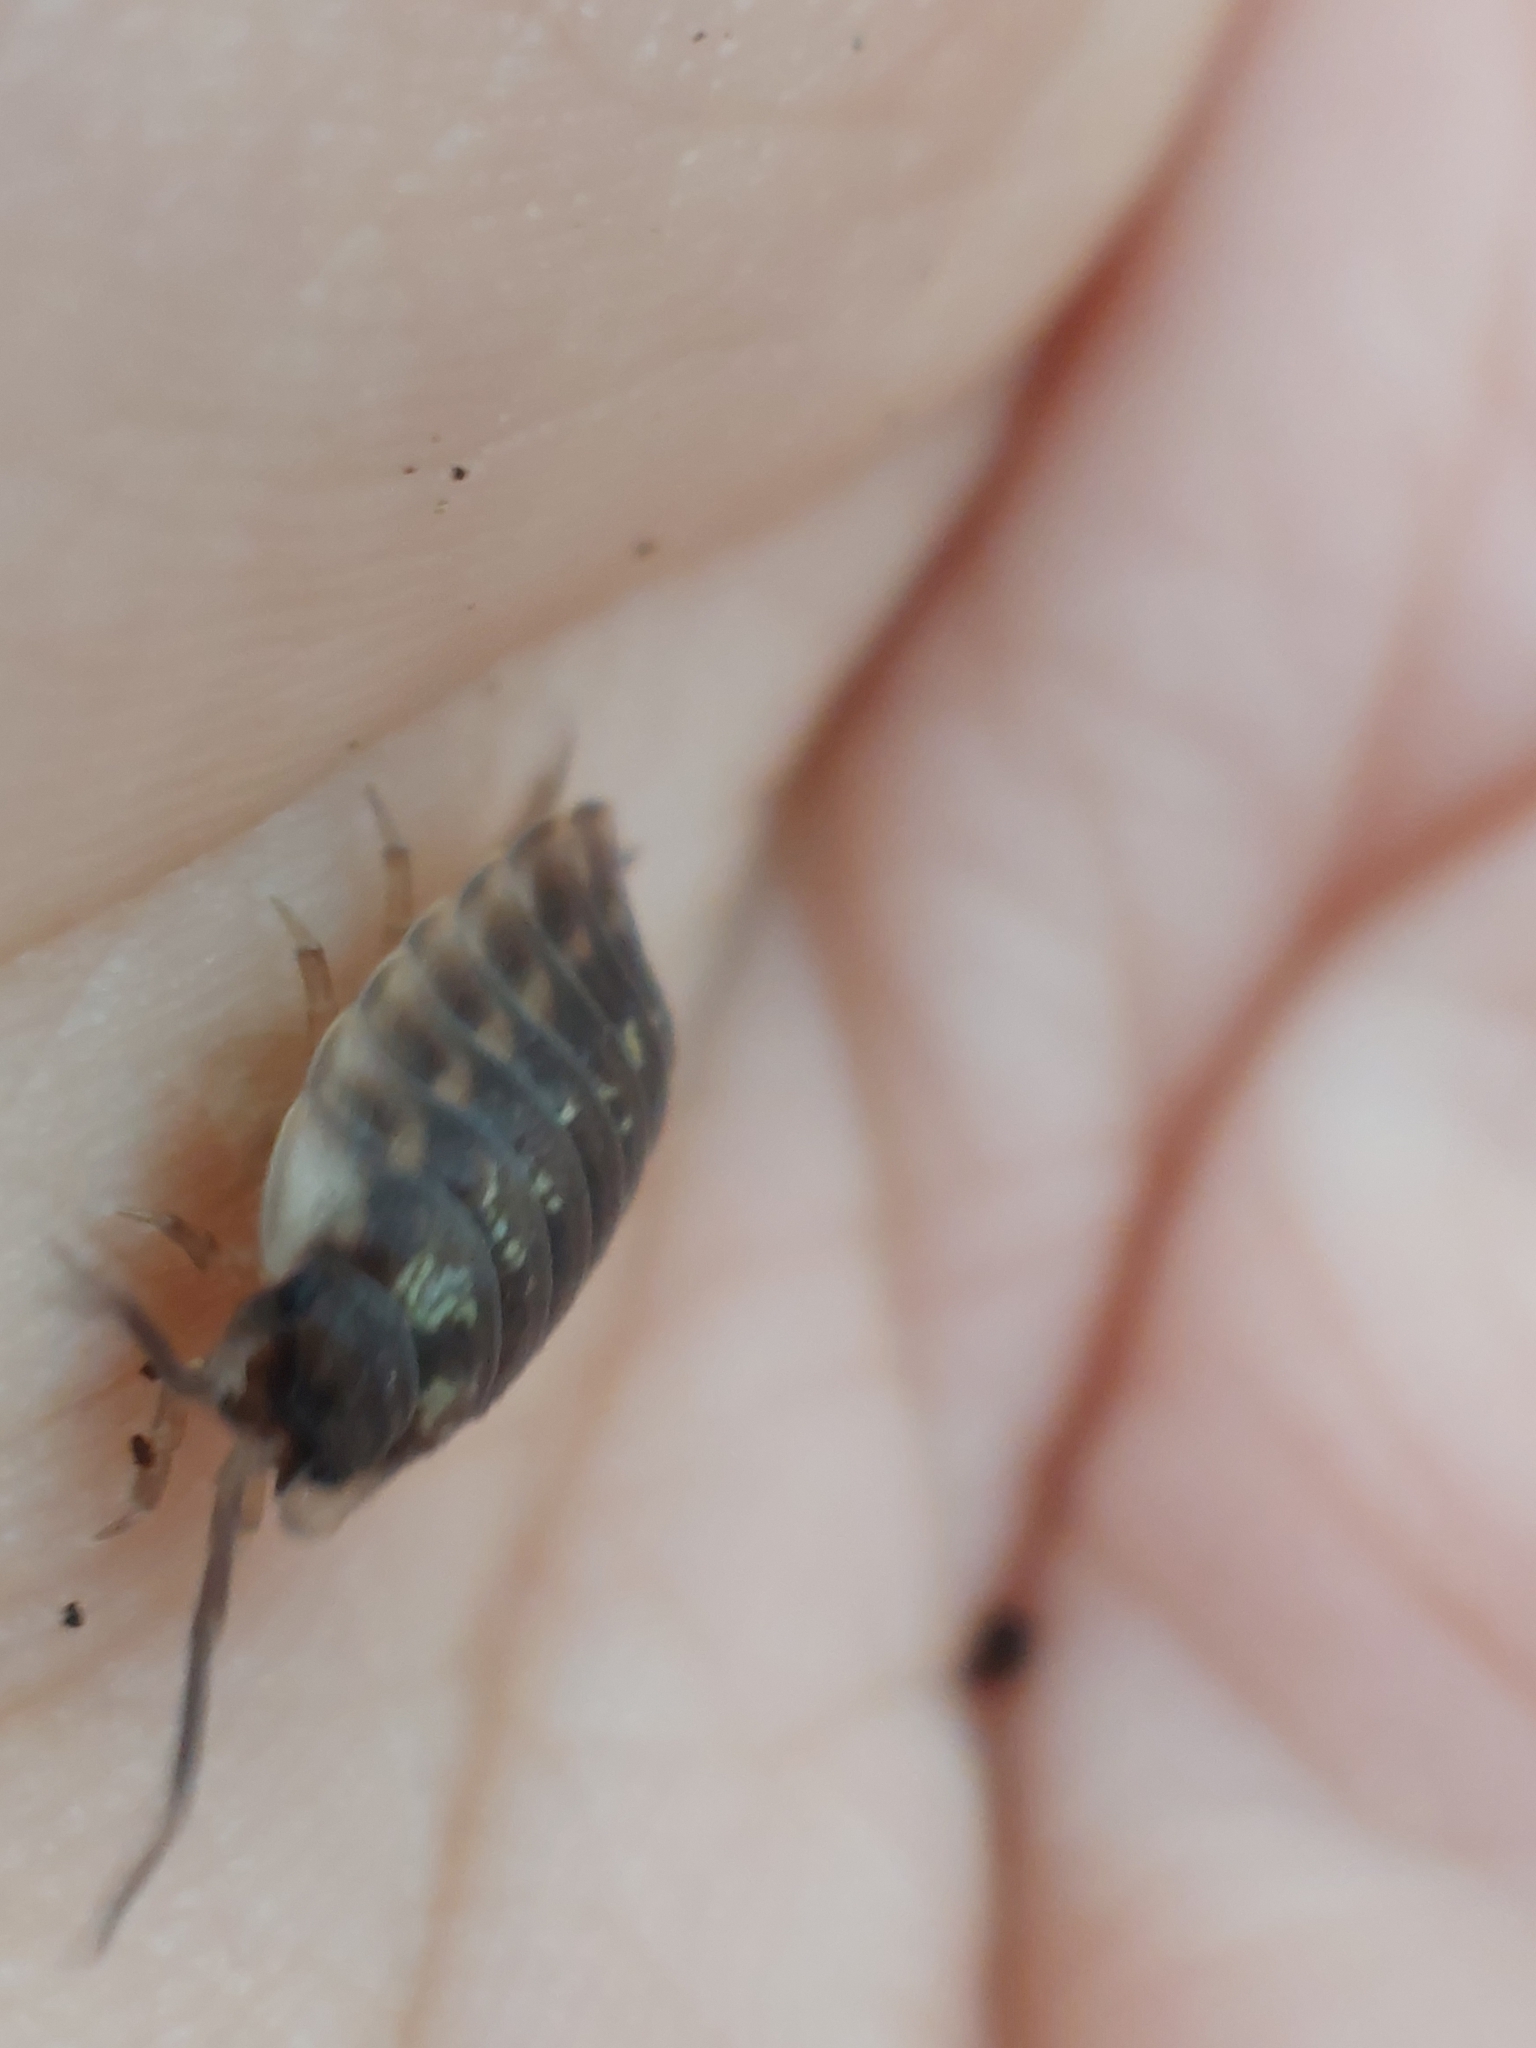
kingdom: Animalia
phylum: Arthropoda
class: Malacostraca
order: Isopoda
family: Oniscidae
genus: Oniscus
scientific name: Oniscus asellus
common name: Common shiny woodlouse
